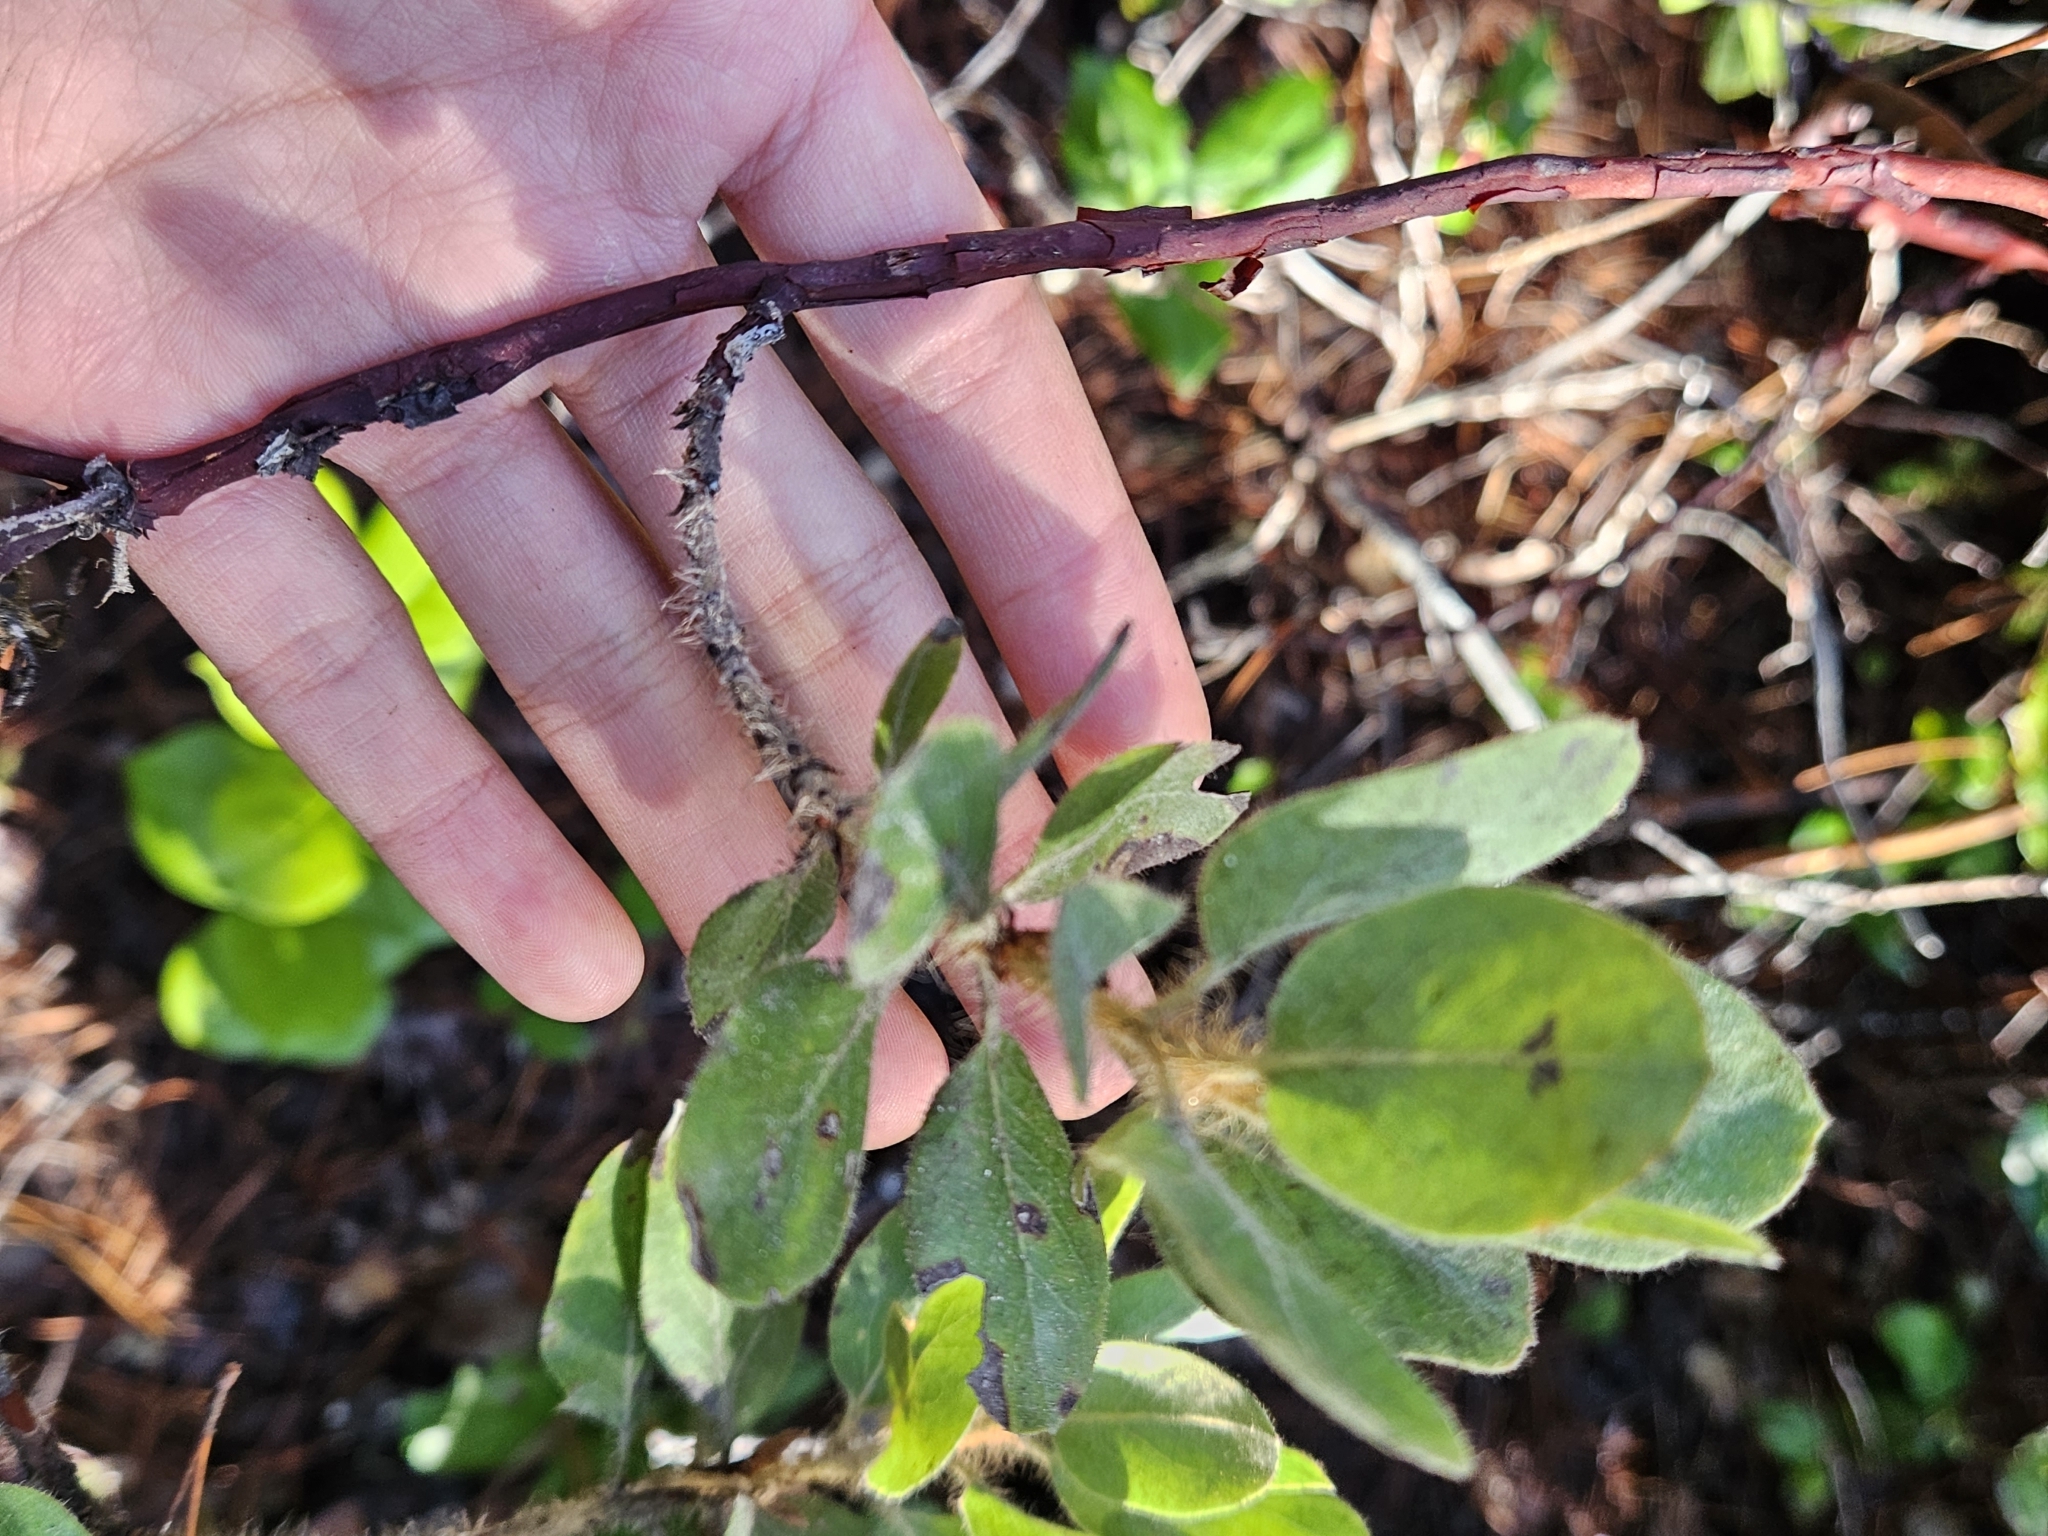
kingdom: Plantae
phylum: Tracheophyta
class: Magnoliopsida
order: Ericales
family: Ericaceae
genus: Arctostaphylos
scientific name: Arctostaphylos columbiana
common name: Bristly bearberry
